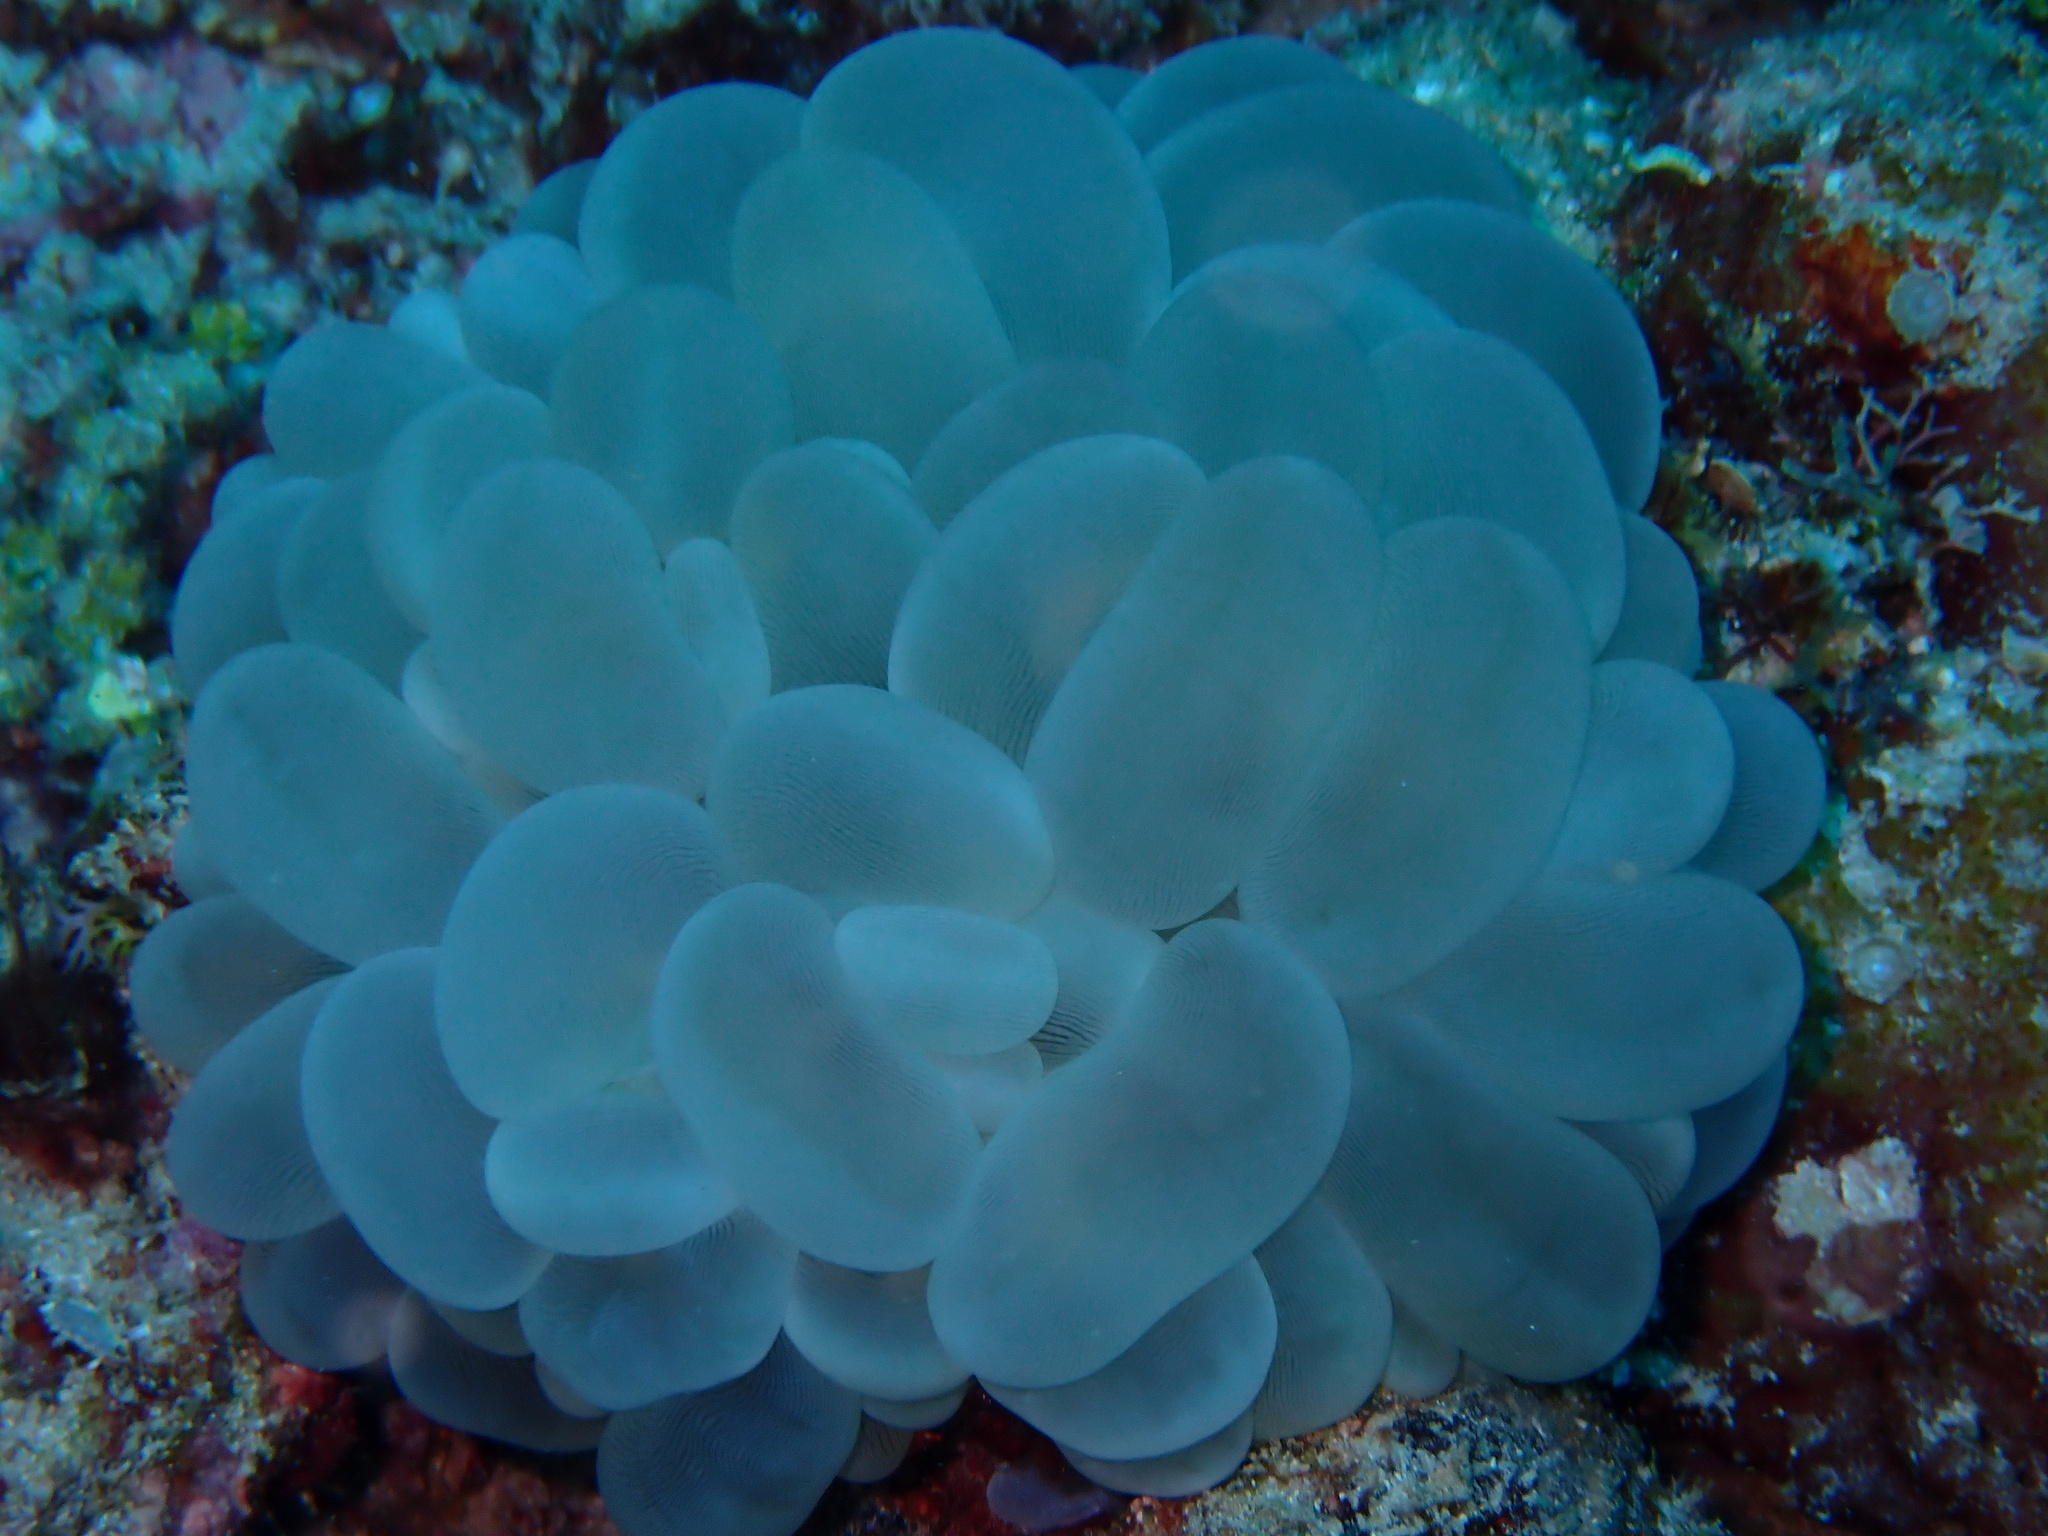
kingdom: Animalia
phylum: Cnidaria
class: Anthozoa
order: Scleractinia
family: Plerogyridae
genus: Plerogyra
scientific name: Plerogyra sinuosa
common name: Bubble coral
